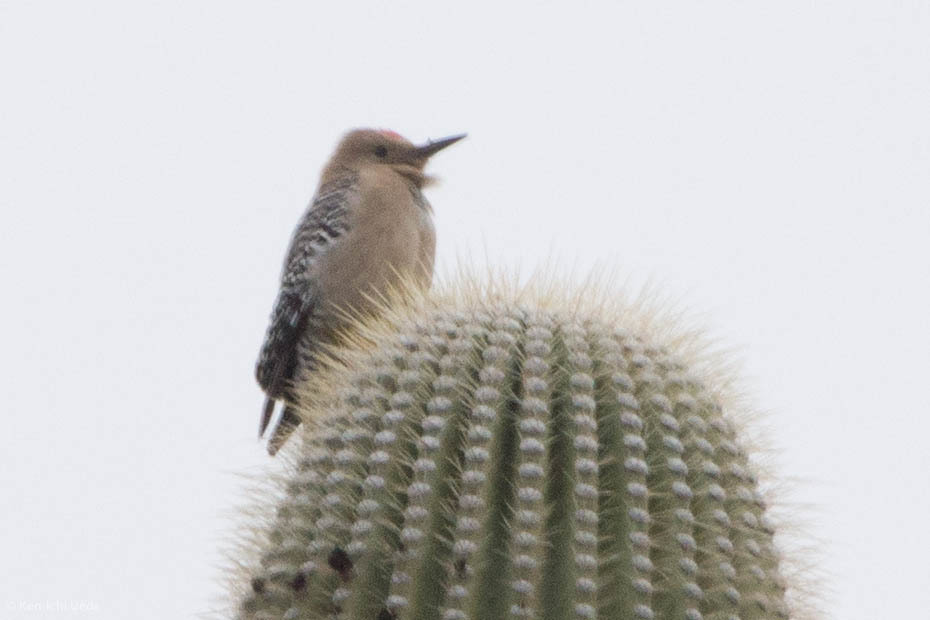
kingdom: Animalia
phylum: Chordata
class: Aves
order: Piciformes
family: Picidae
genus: Melanerpes
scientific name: Melanerpes uropygialis
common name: Gila woodpecker
